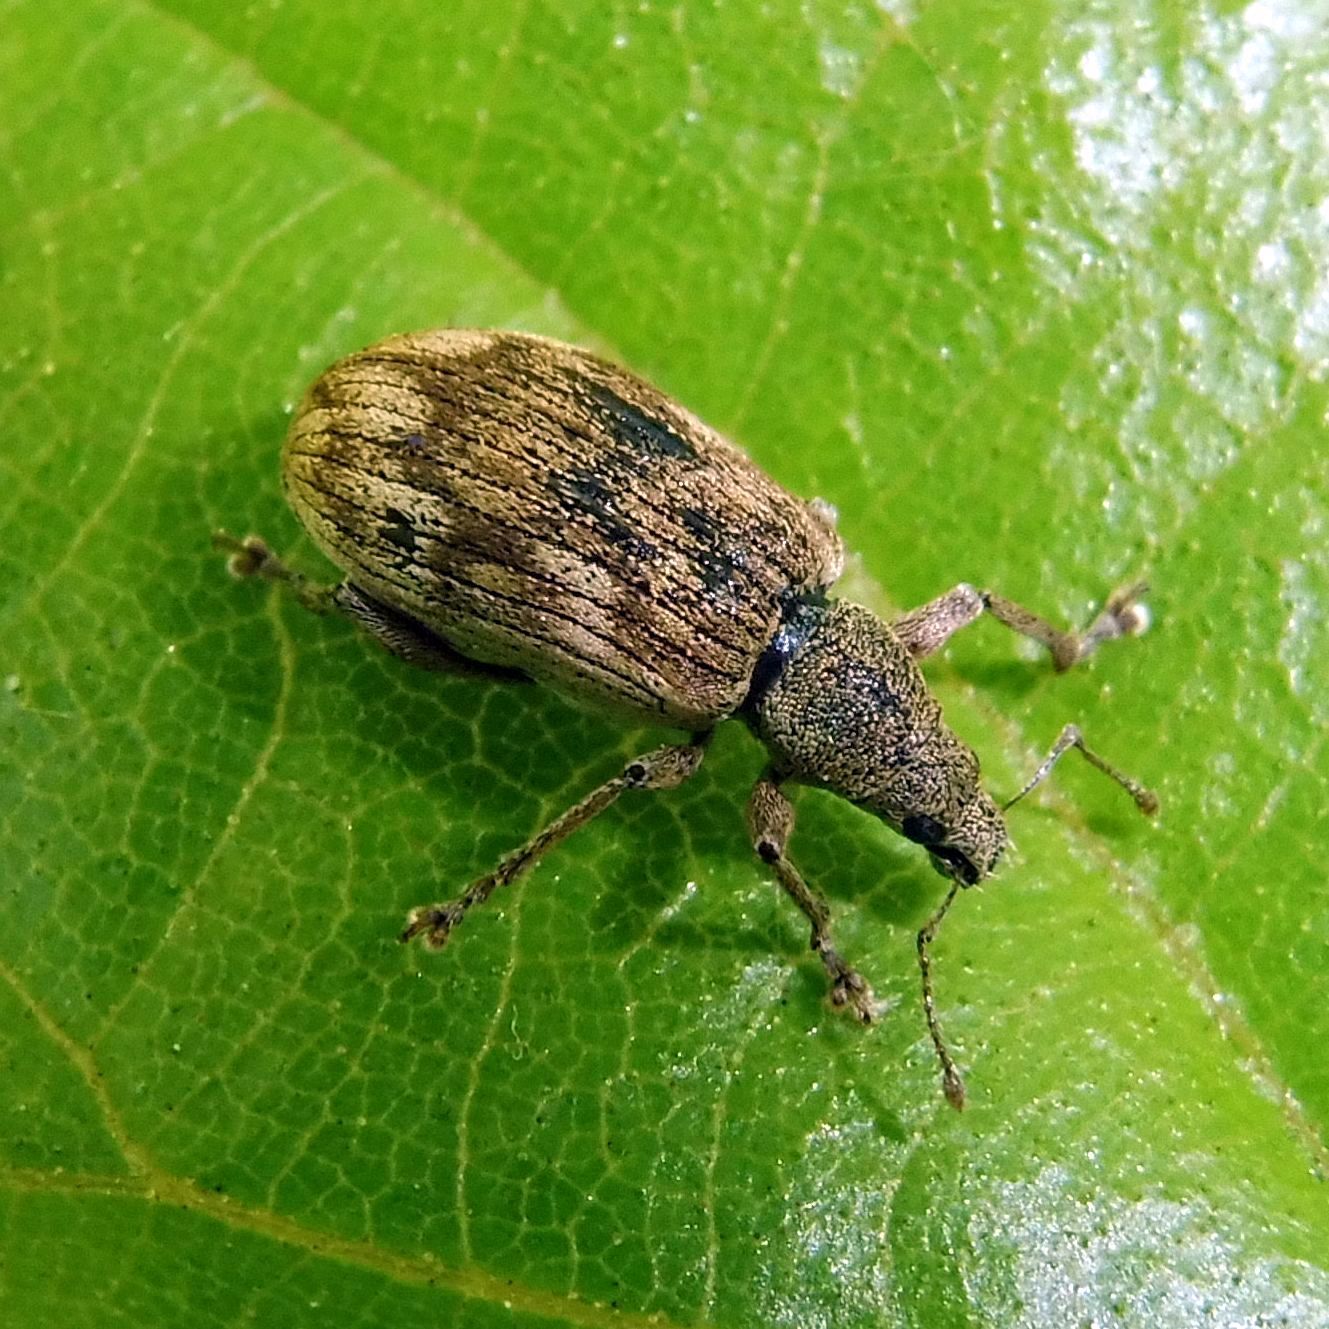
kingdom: Animalia
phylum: Arthropoda
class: Insecta
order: Coleoptera
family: Curculionidae
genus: Polydrusus
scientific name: Polydrusus tereticollis
